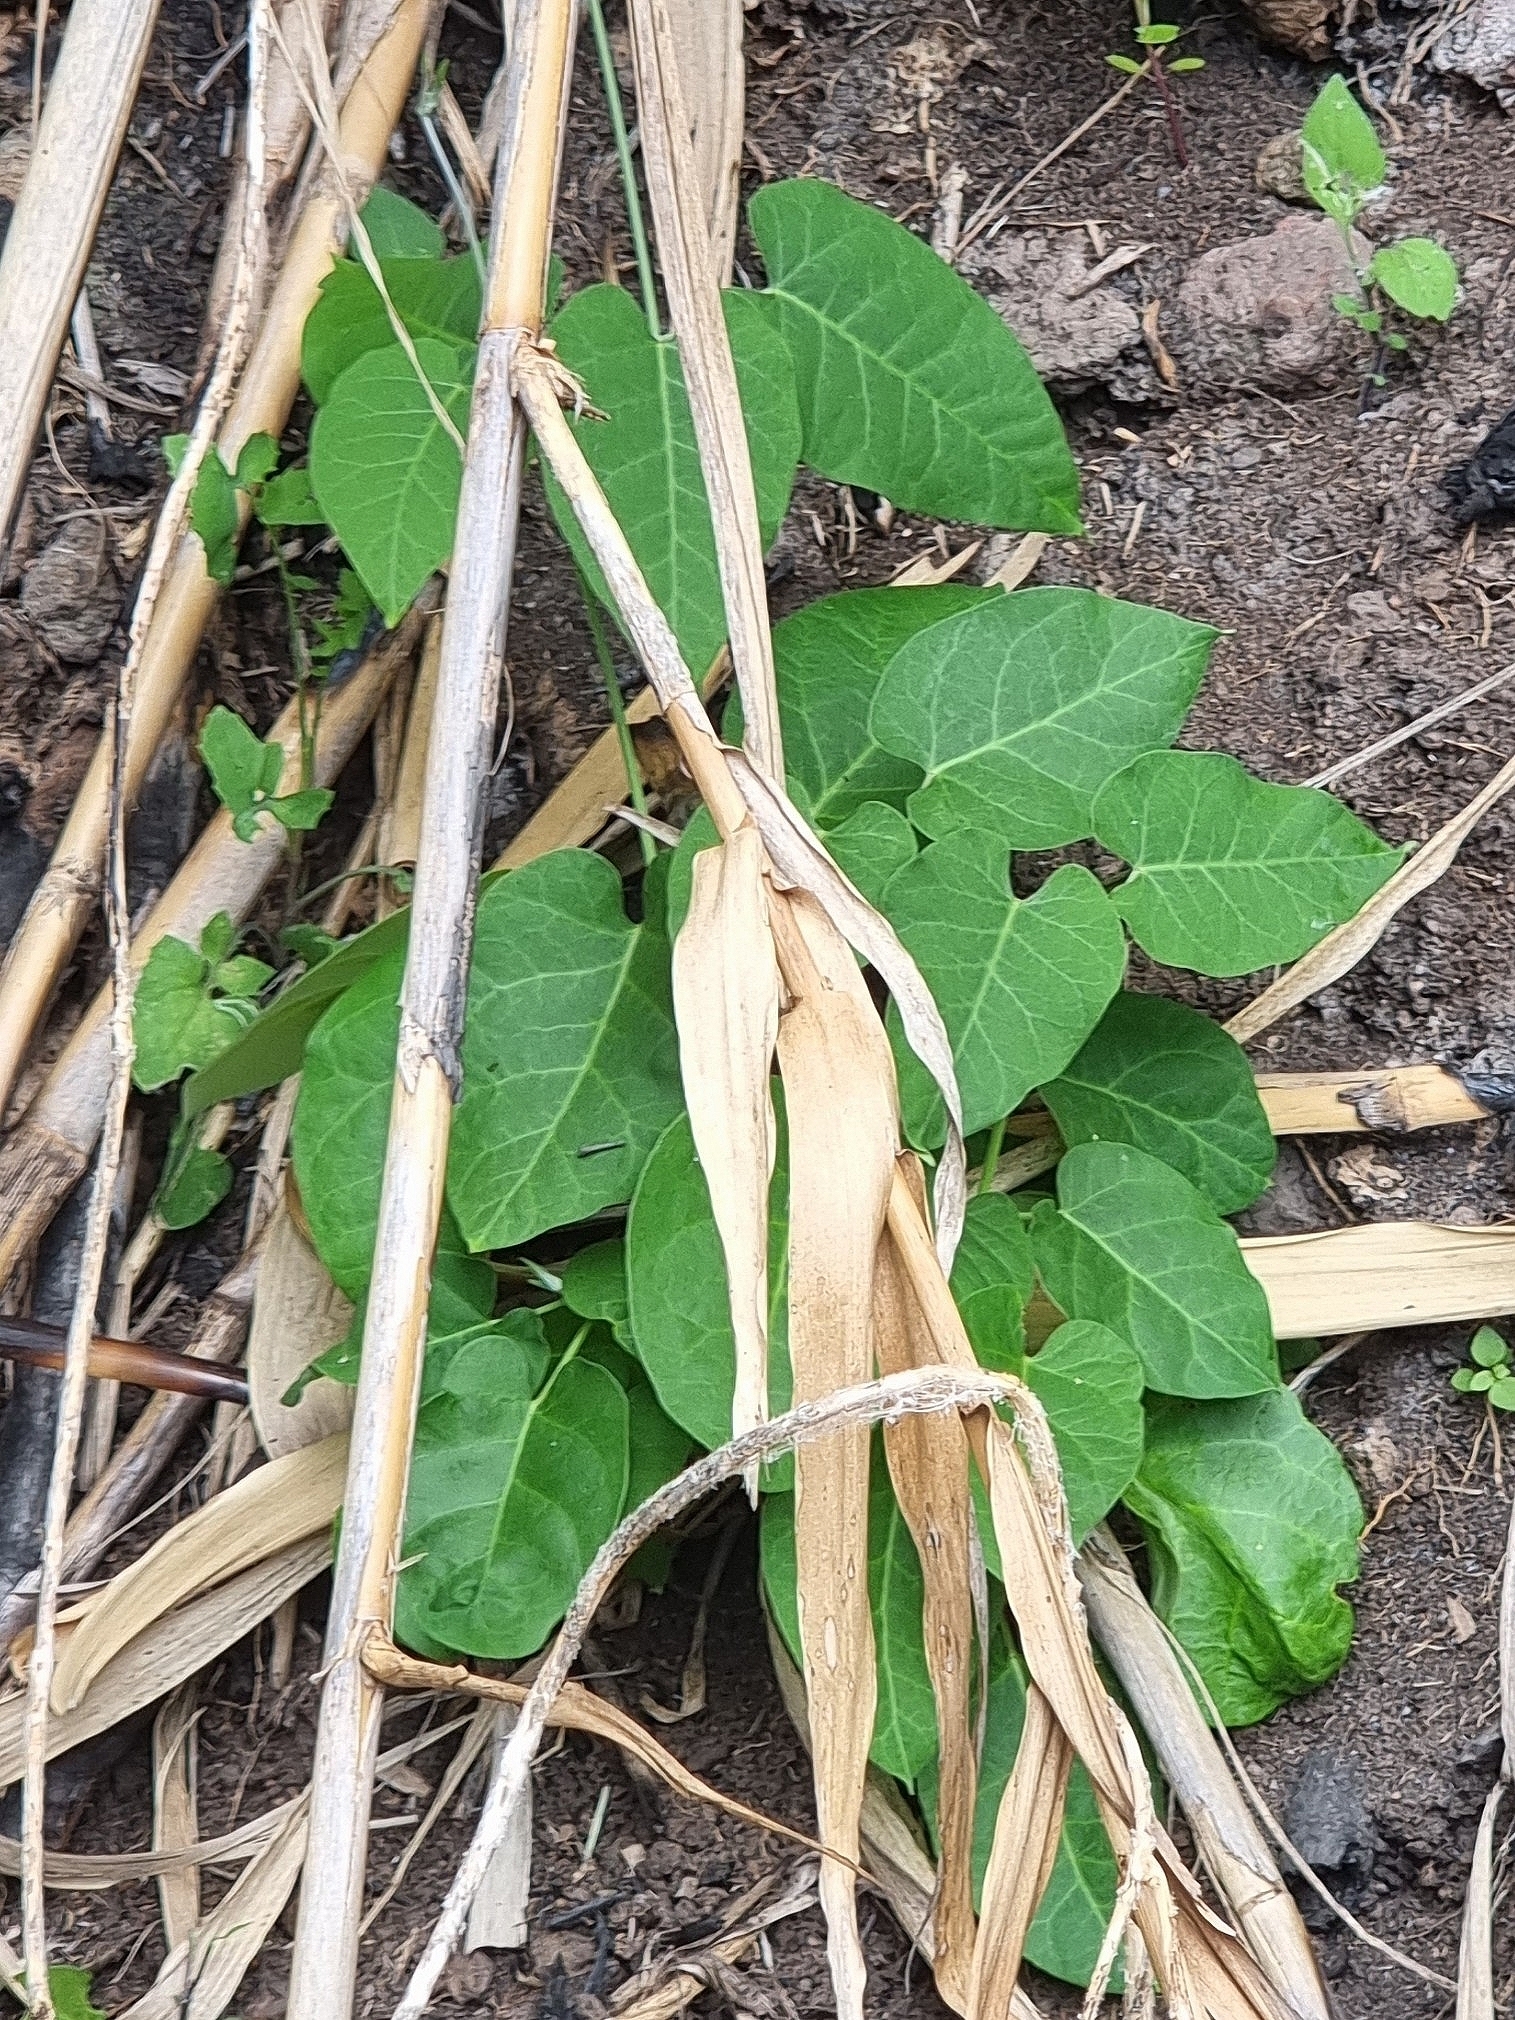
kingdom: Plantae
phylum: Tracheophyta
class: Magnoliopsida
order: Gentianales
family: Apocynaceae
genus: Araujia
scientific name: Araujia sericifera
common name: White bladderflower
